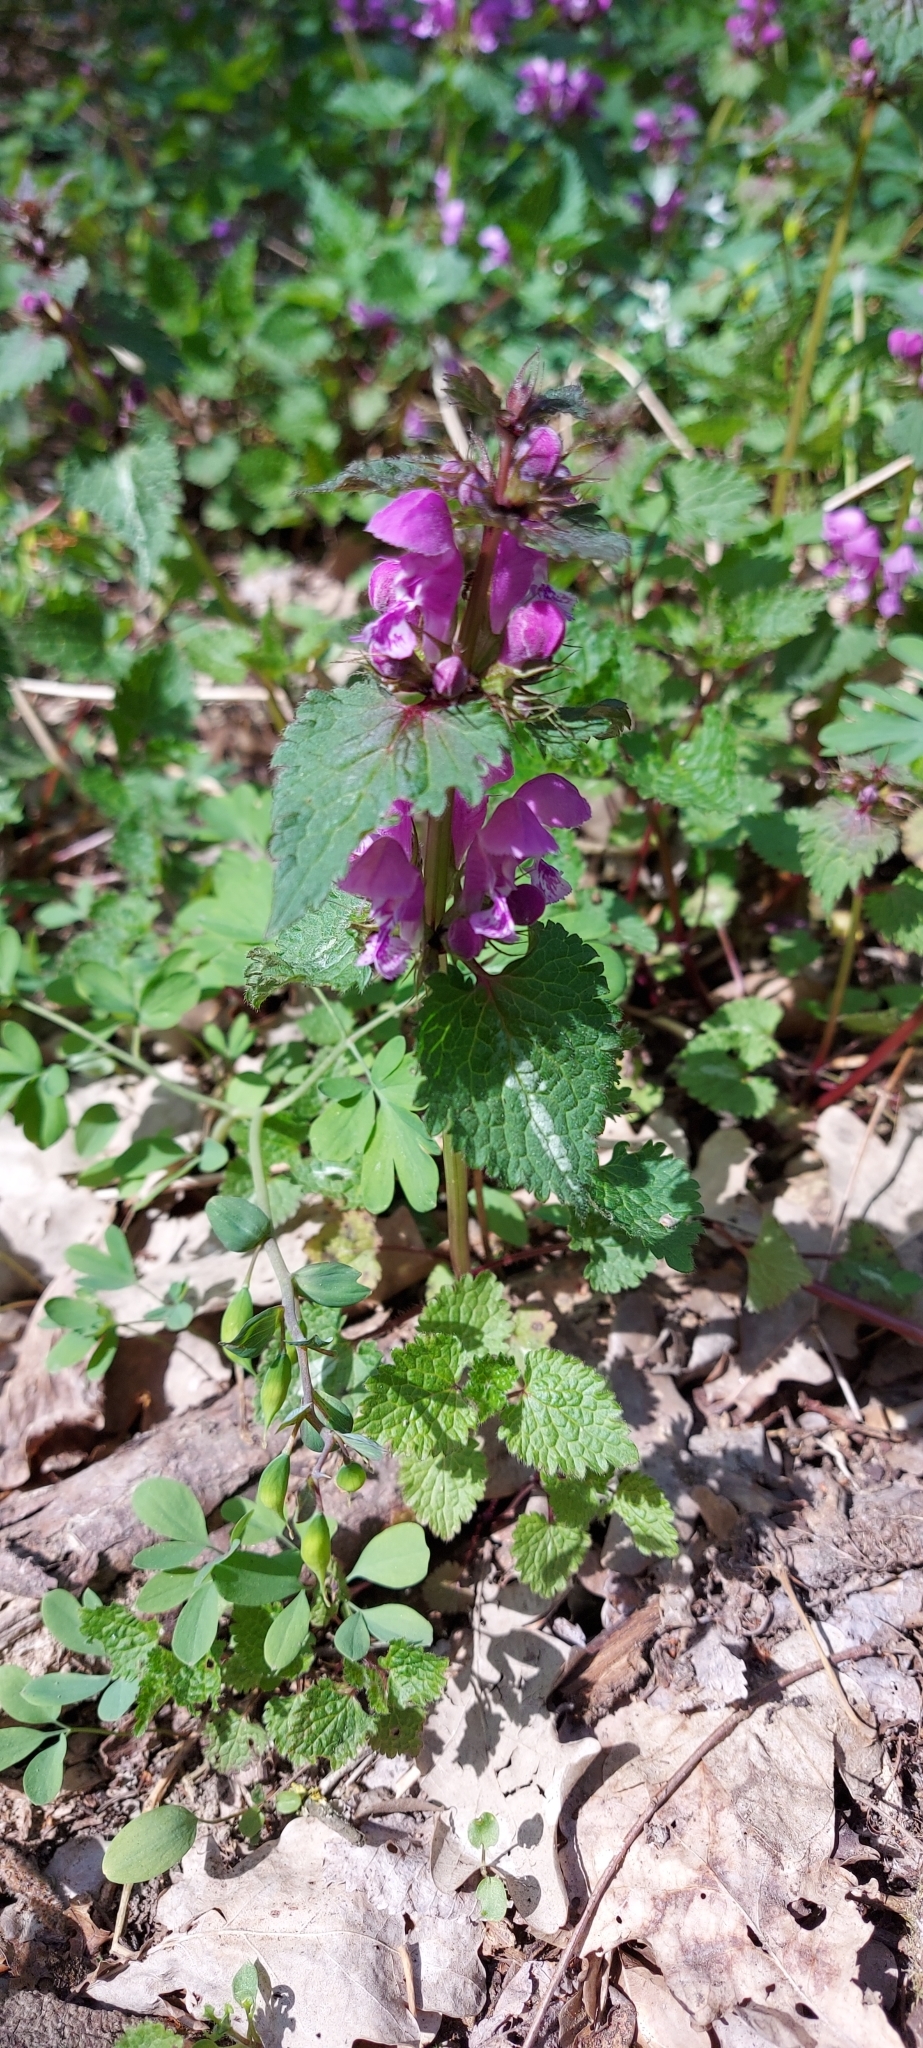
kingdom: Plantae
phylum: Tracheophyta
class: Magnoliopsida
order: Lamiales
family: Lamiaceae
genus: Lamium
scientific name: Lamium maculatum
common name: Spotted dead-nettle
